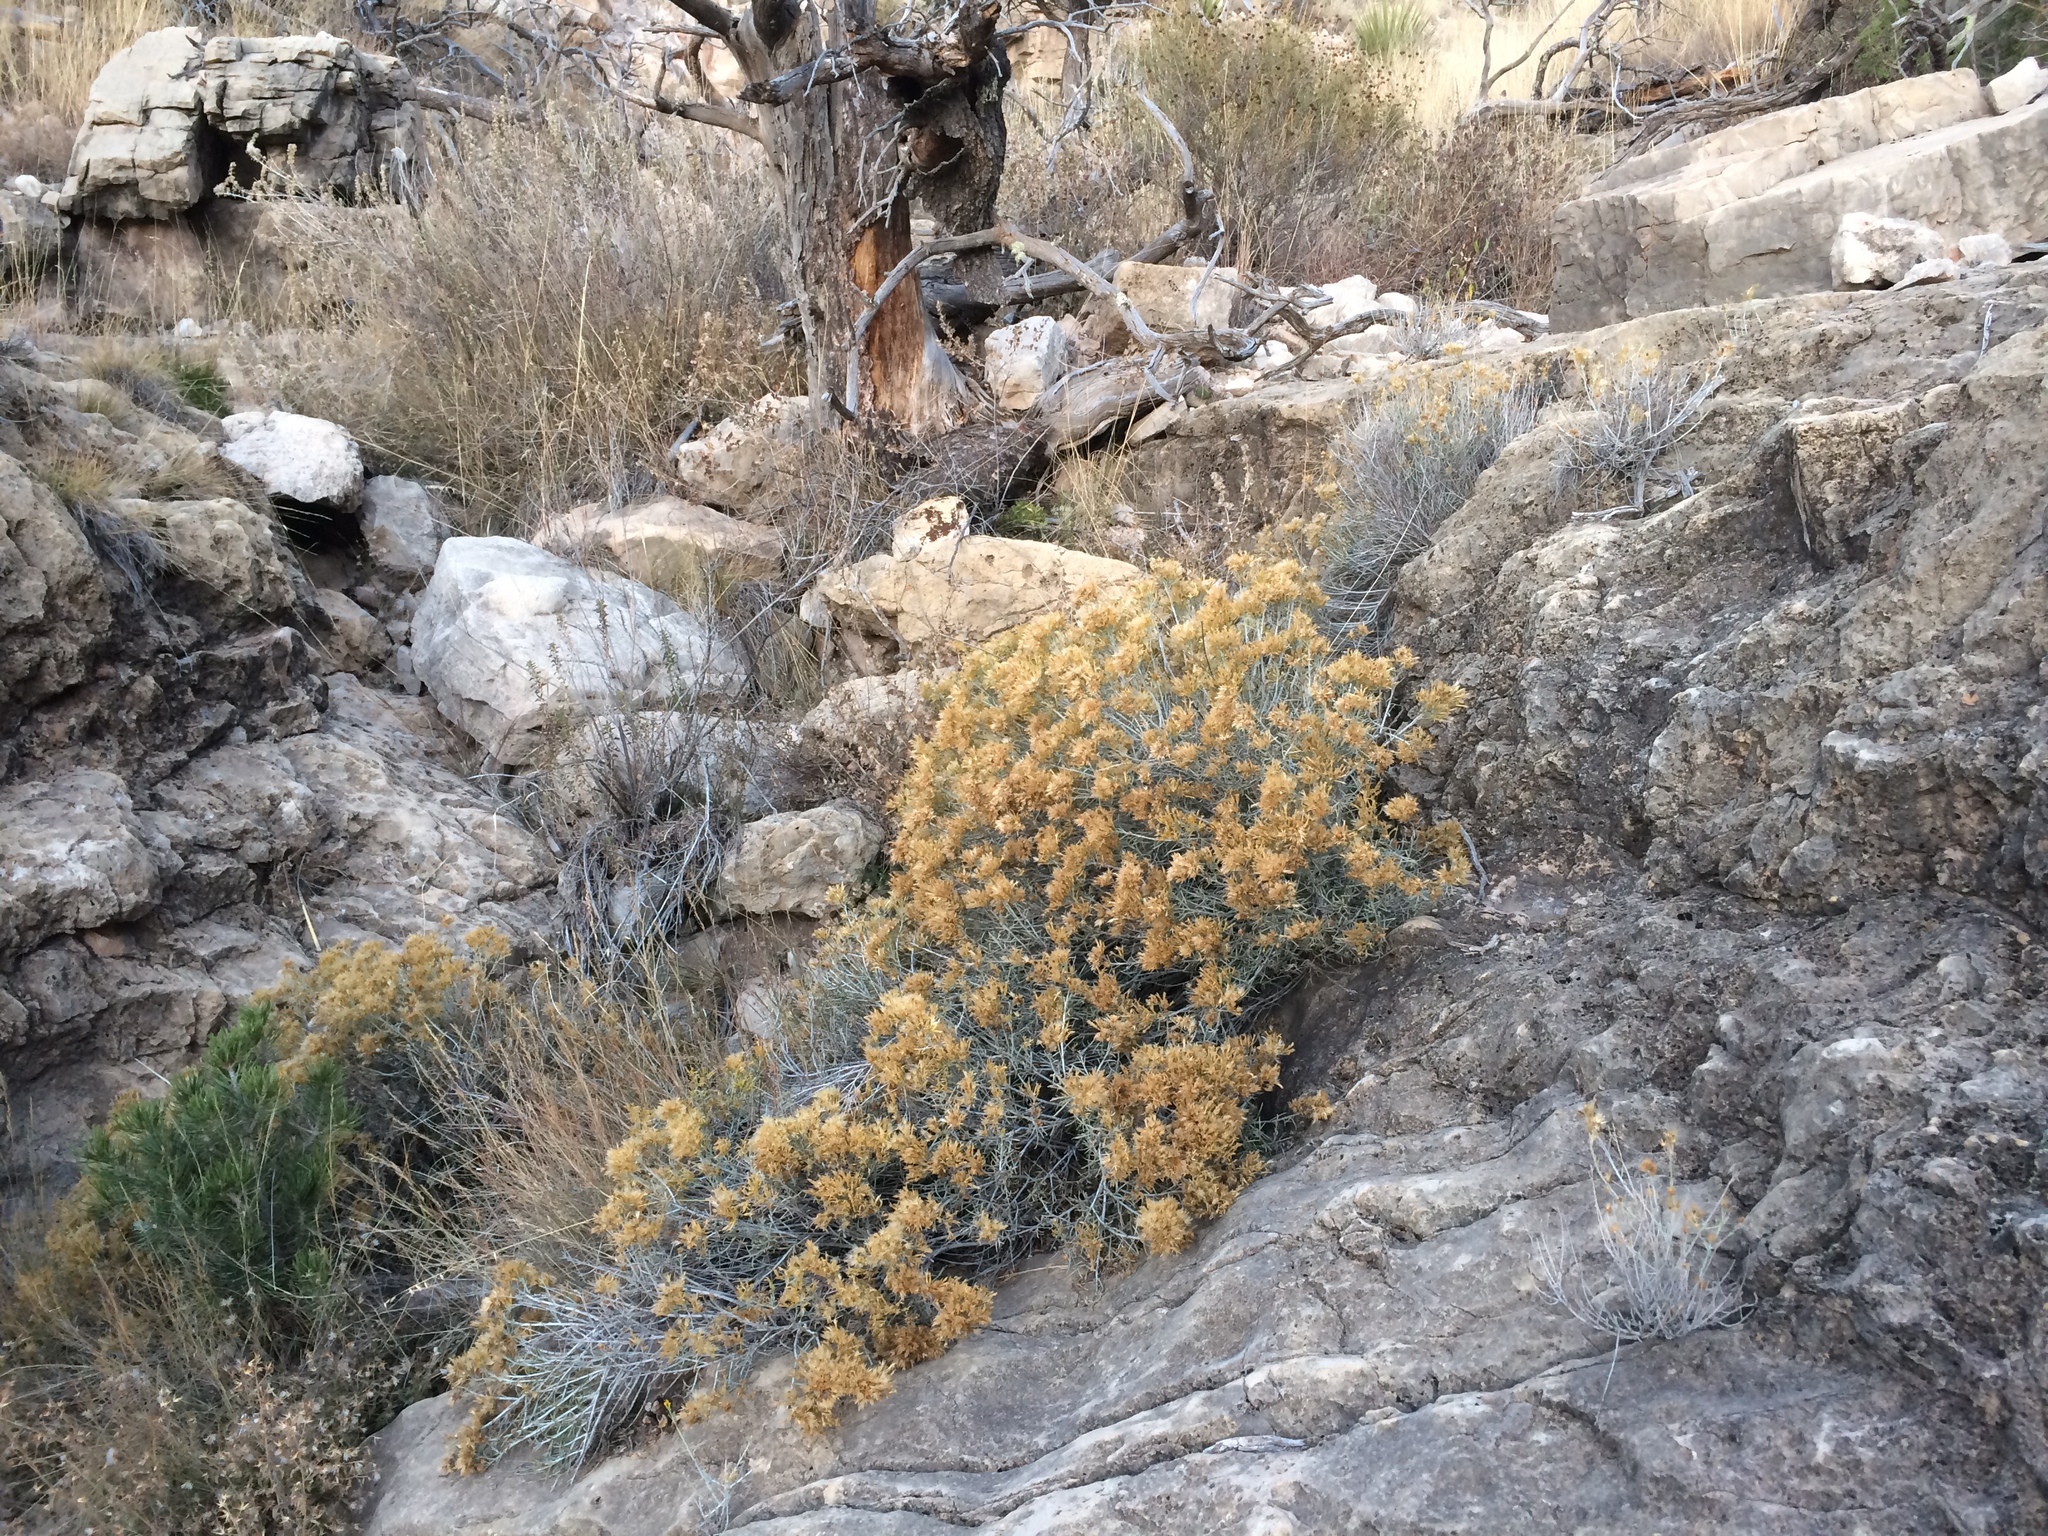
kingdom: Plantae
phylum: Tracheophyta
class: Magnoliopsida
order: Asterales
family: Asteraceae
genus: Ericameria
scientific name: Ericameria nauseosa
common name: Rubber rabbitbrush
